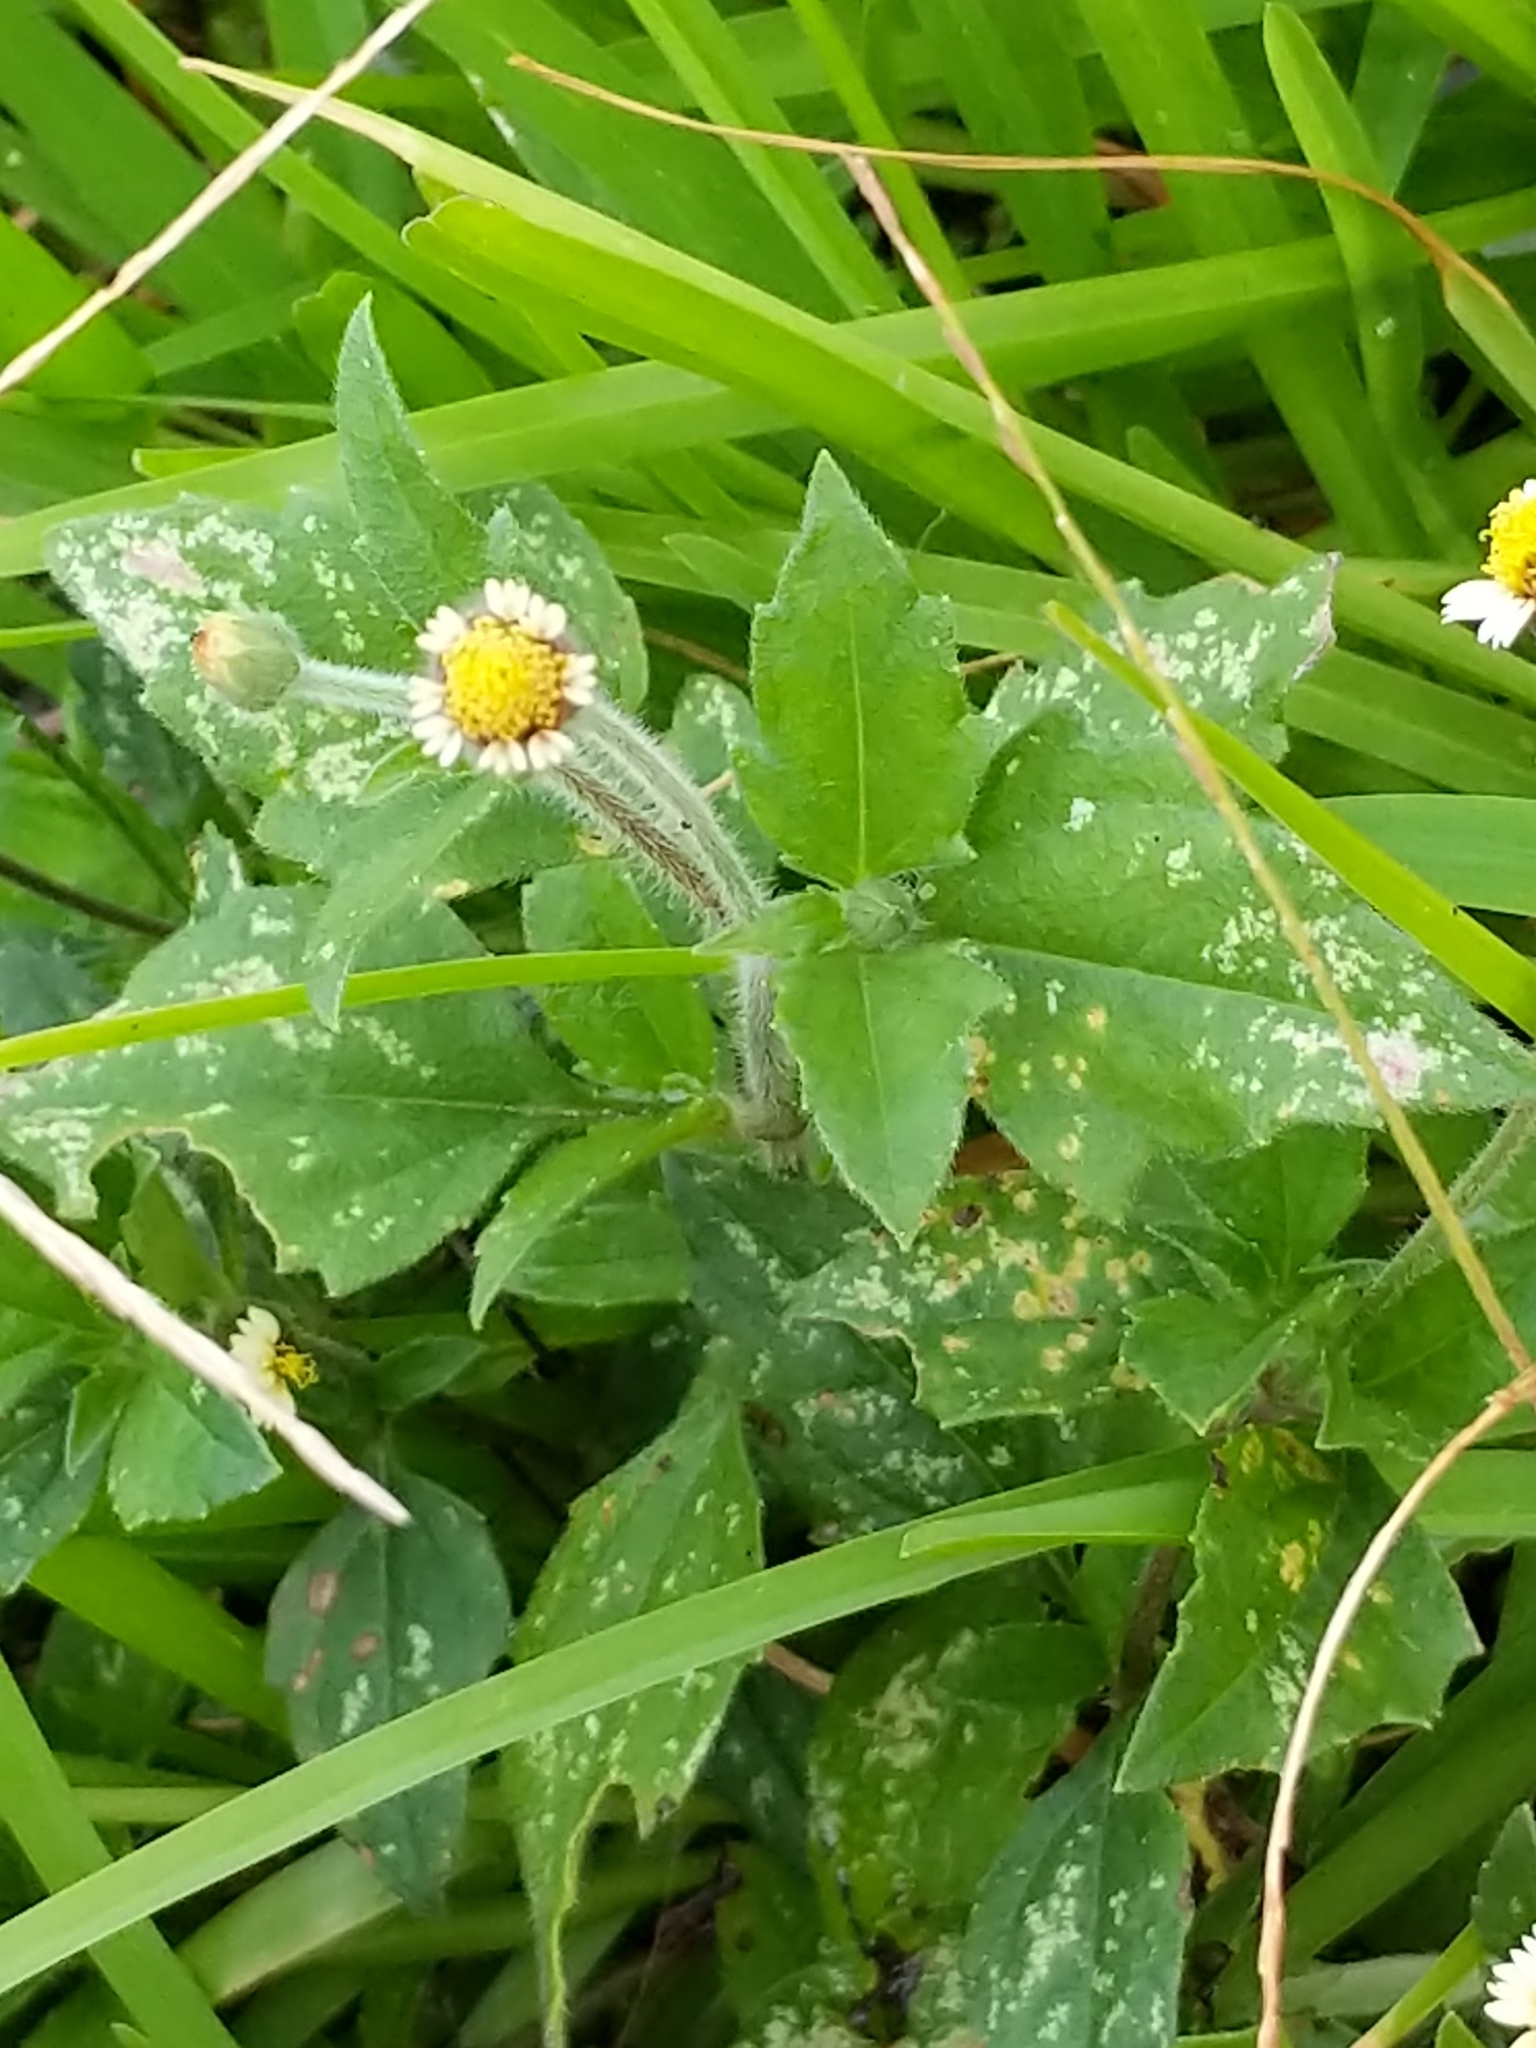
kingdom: Plantae
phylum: Tracheophyta
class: Magnoliopsida
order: Asterales
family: Asteraceae
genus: Tridax
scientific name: Tridax procumbens
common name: Coatbuttons
